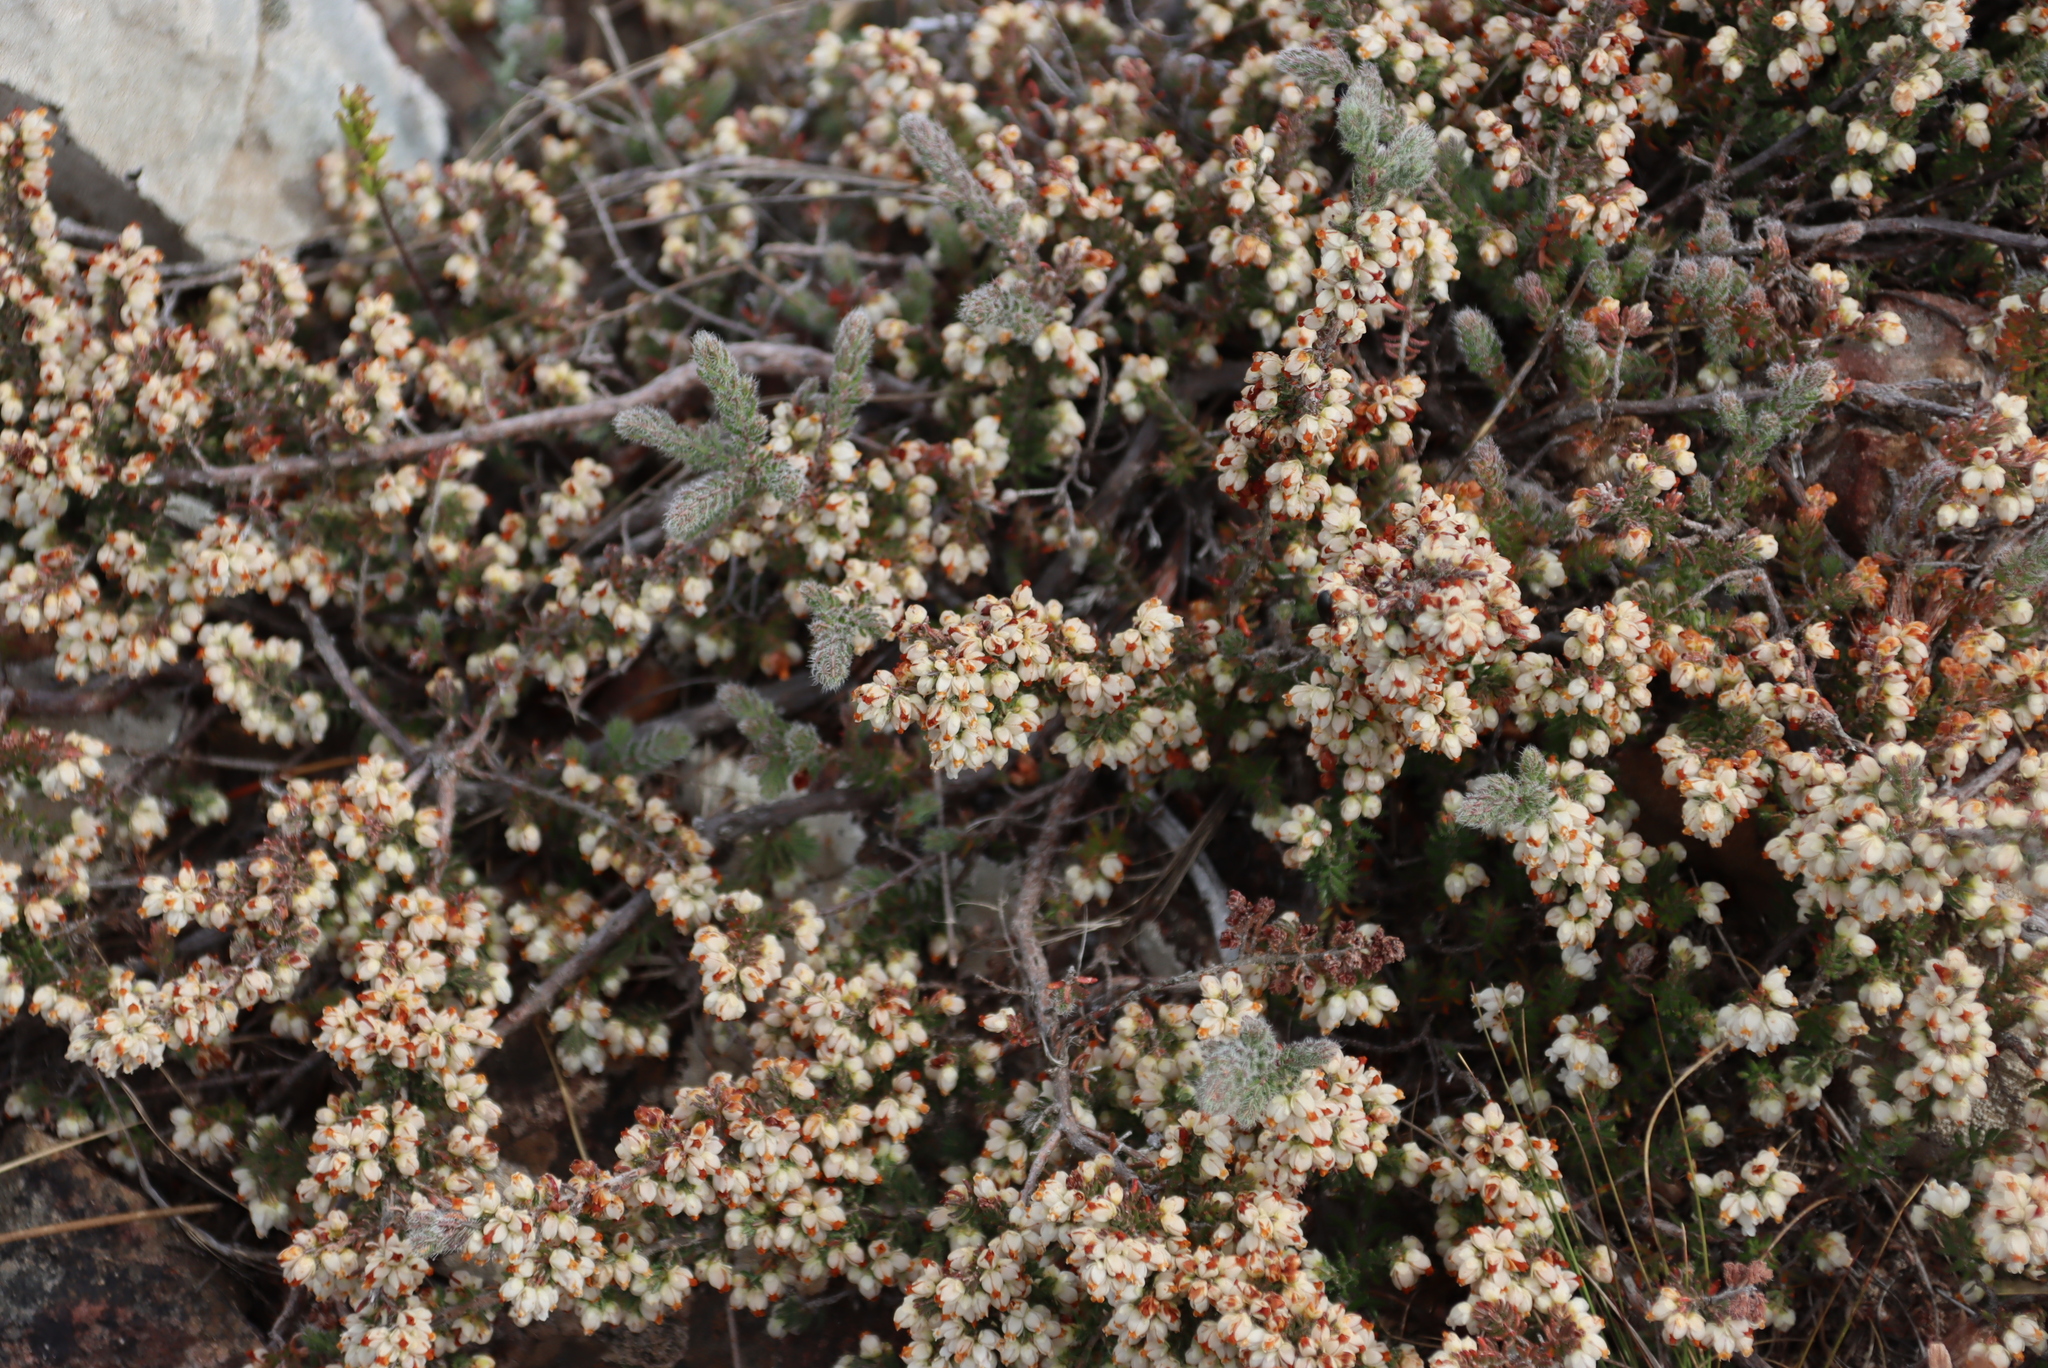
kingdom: Plantae
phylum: Tracheophyta
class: Magnoliopsida
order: Ericales
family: Ericaceae
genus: Erica
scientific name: Erica totta
